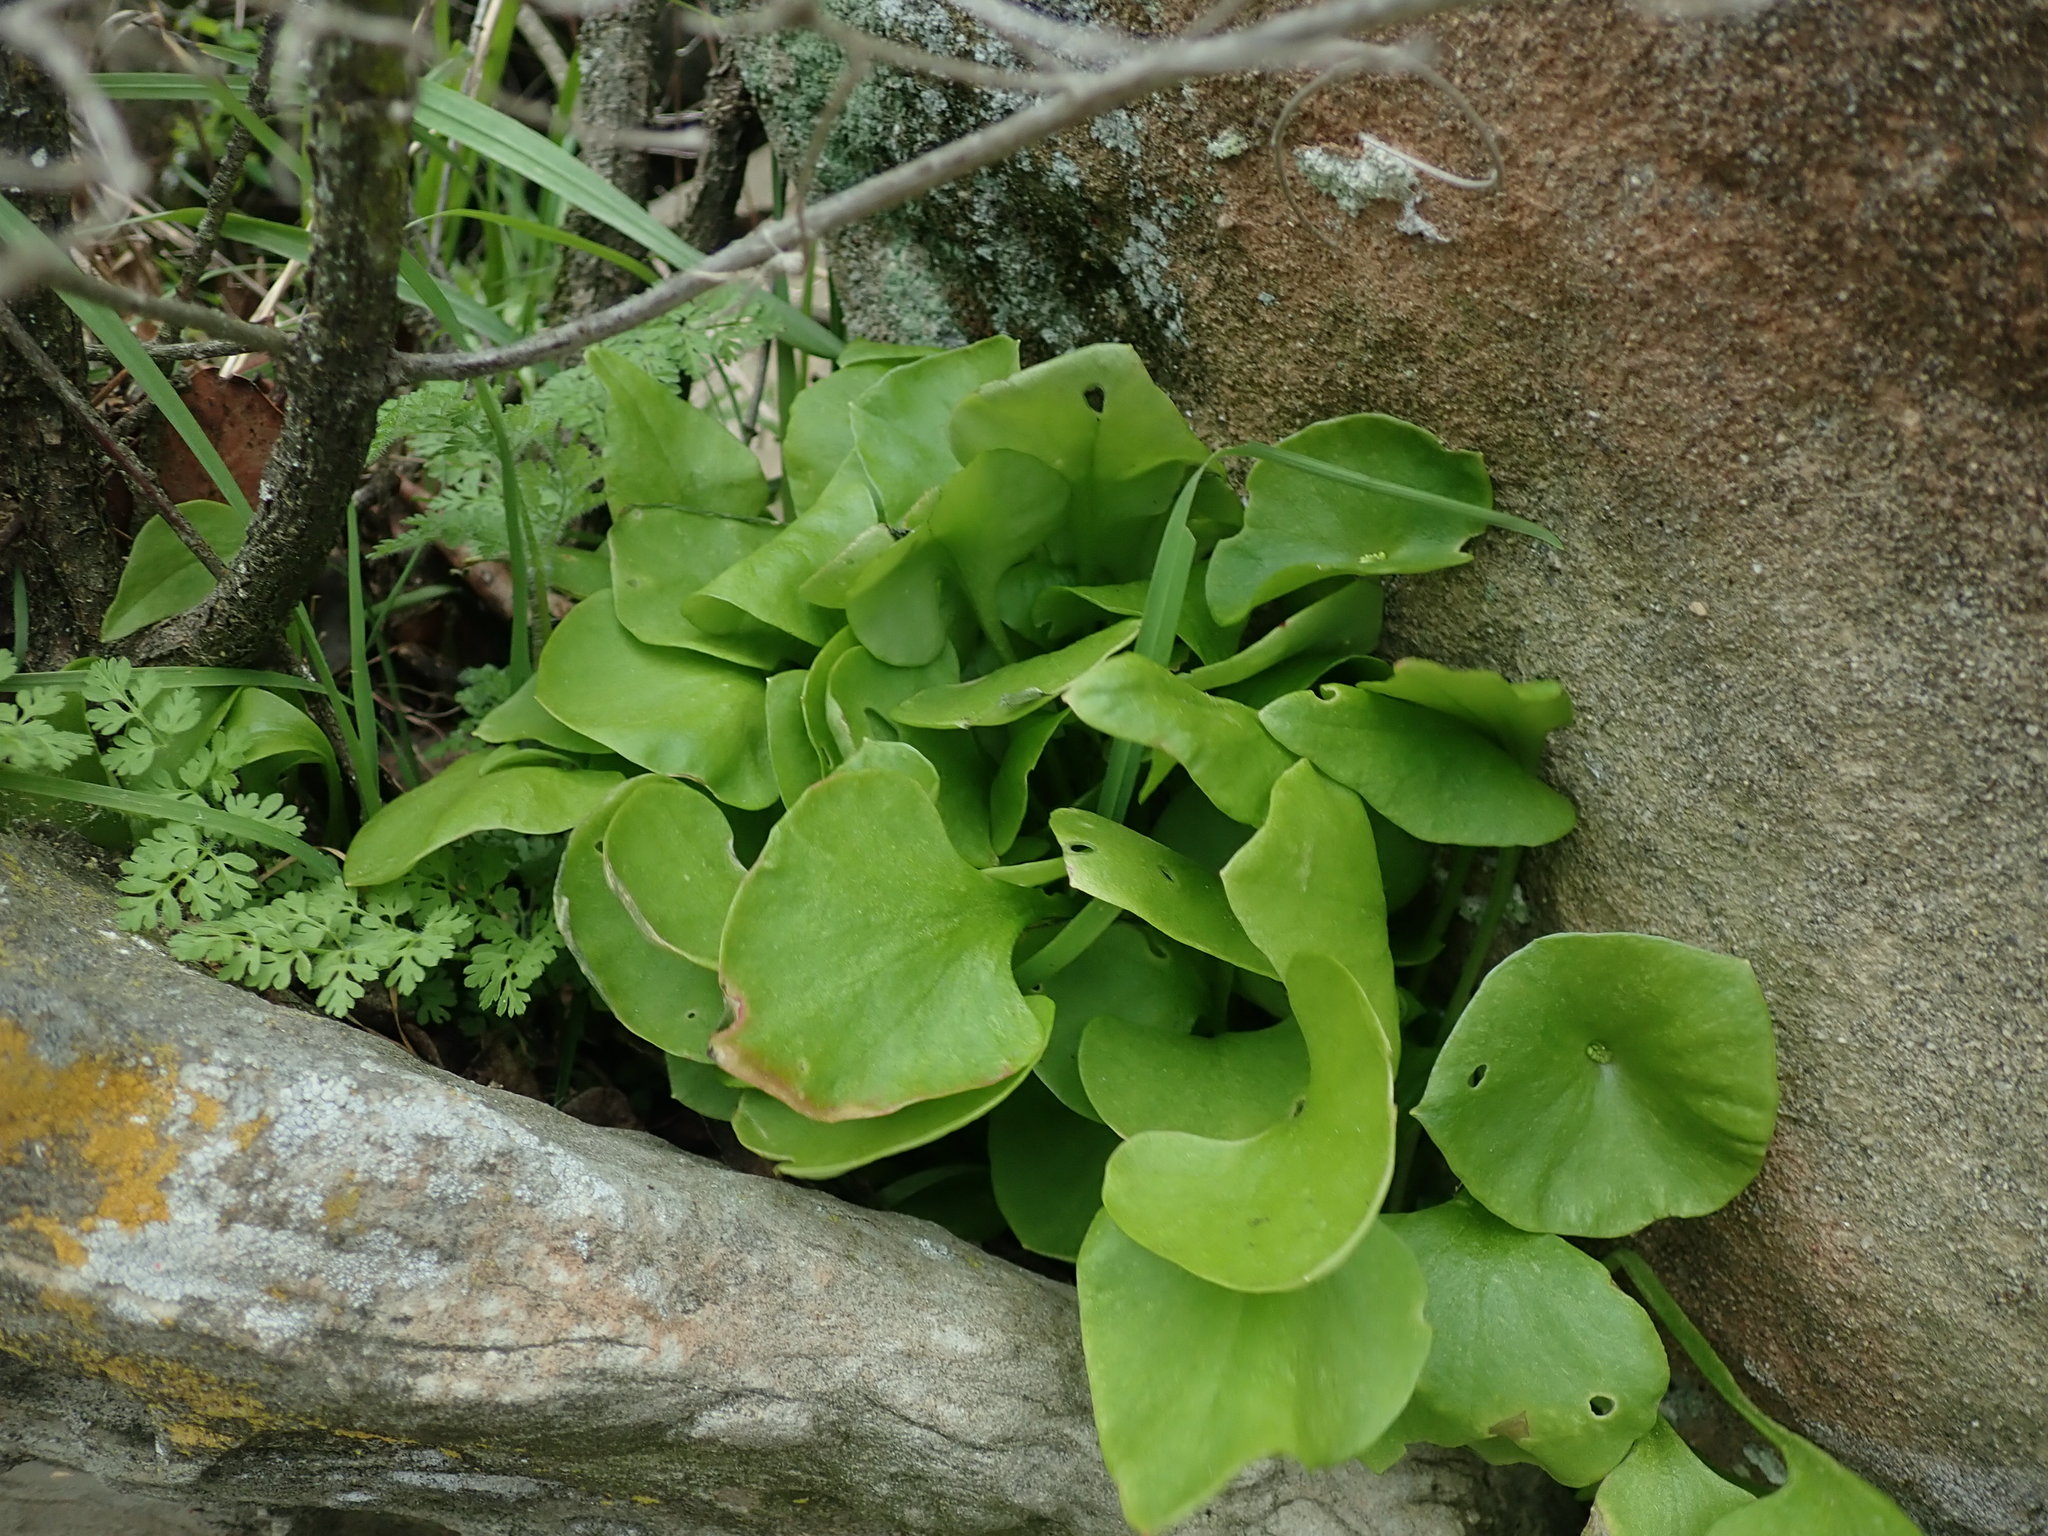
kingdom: Plantae
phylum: Tracheophyta
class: Magnoliopsida
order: Caryophyllales
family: Montiaceae
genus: Claytonia
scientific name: Claytonia perfoliata
